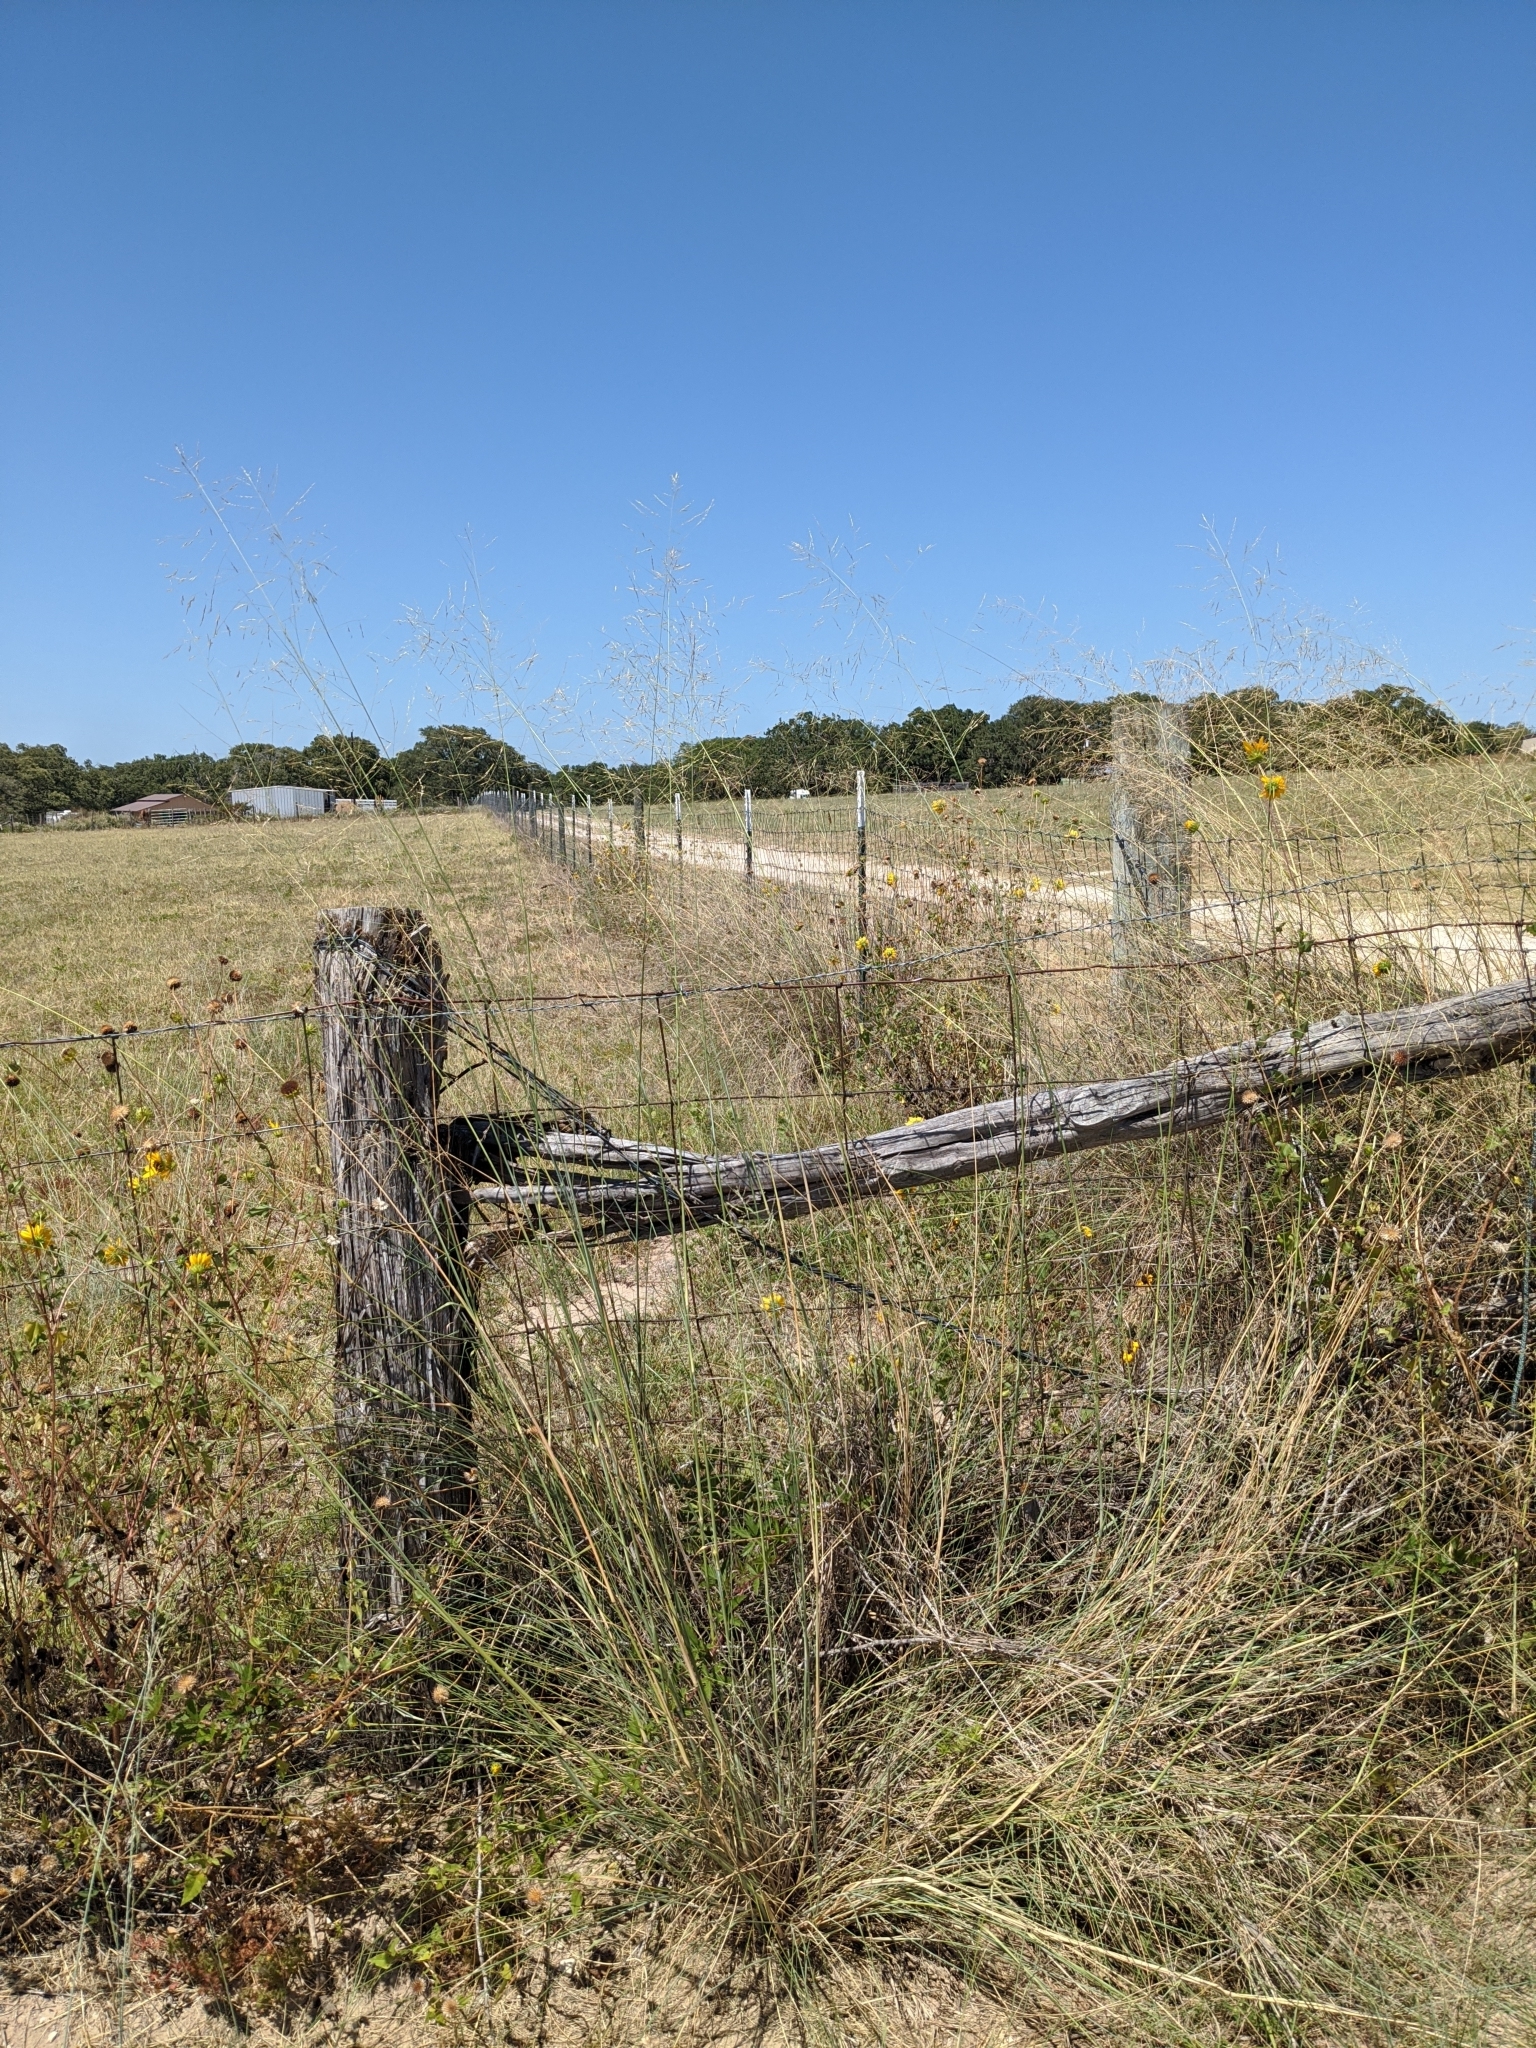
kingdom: Plantae
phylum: Tracheophyta
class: Liliopsida
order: Poales
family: Poaceae
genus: Eragrostis
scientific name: Eragrostis curvula
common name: African love-grass
